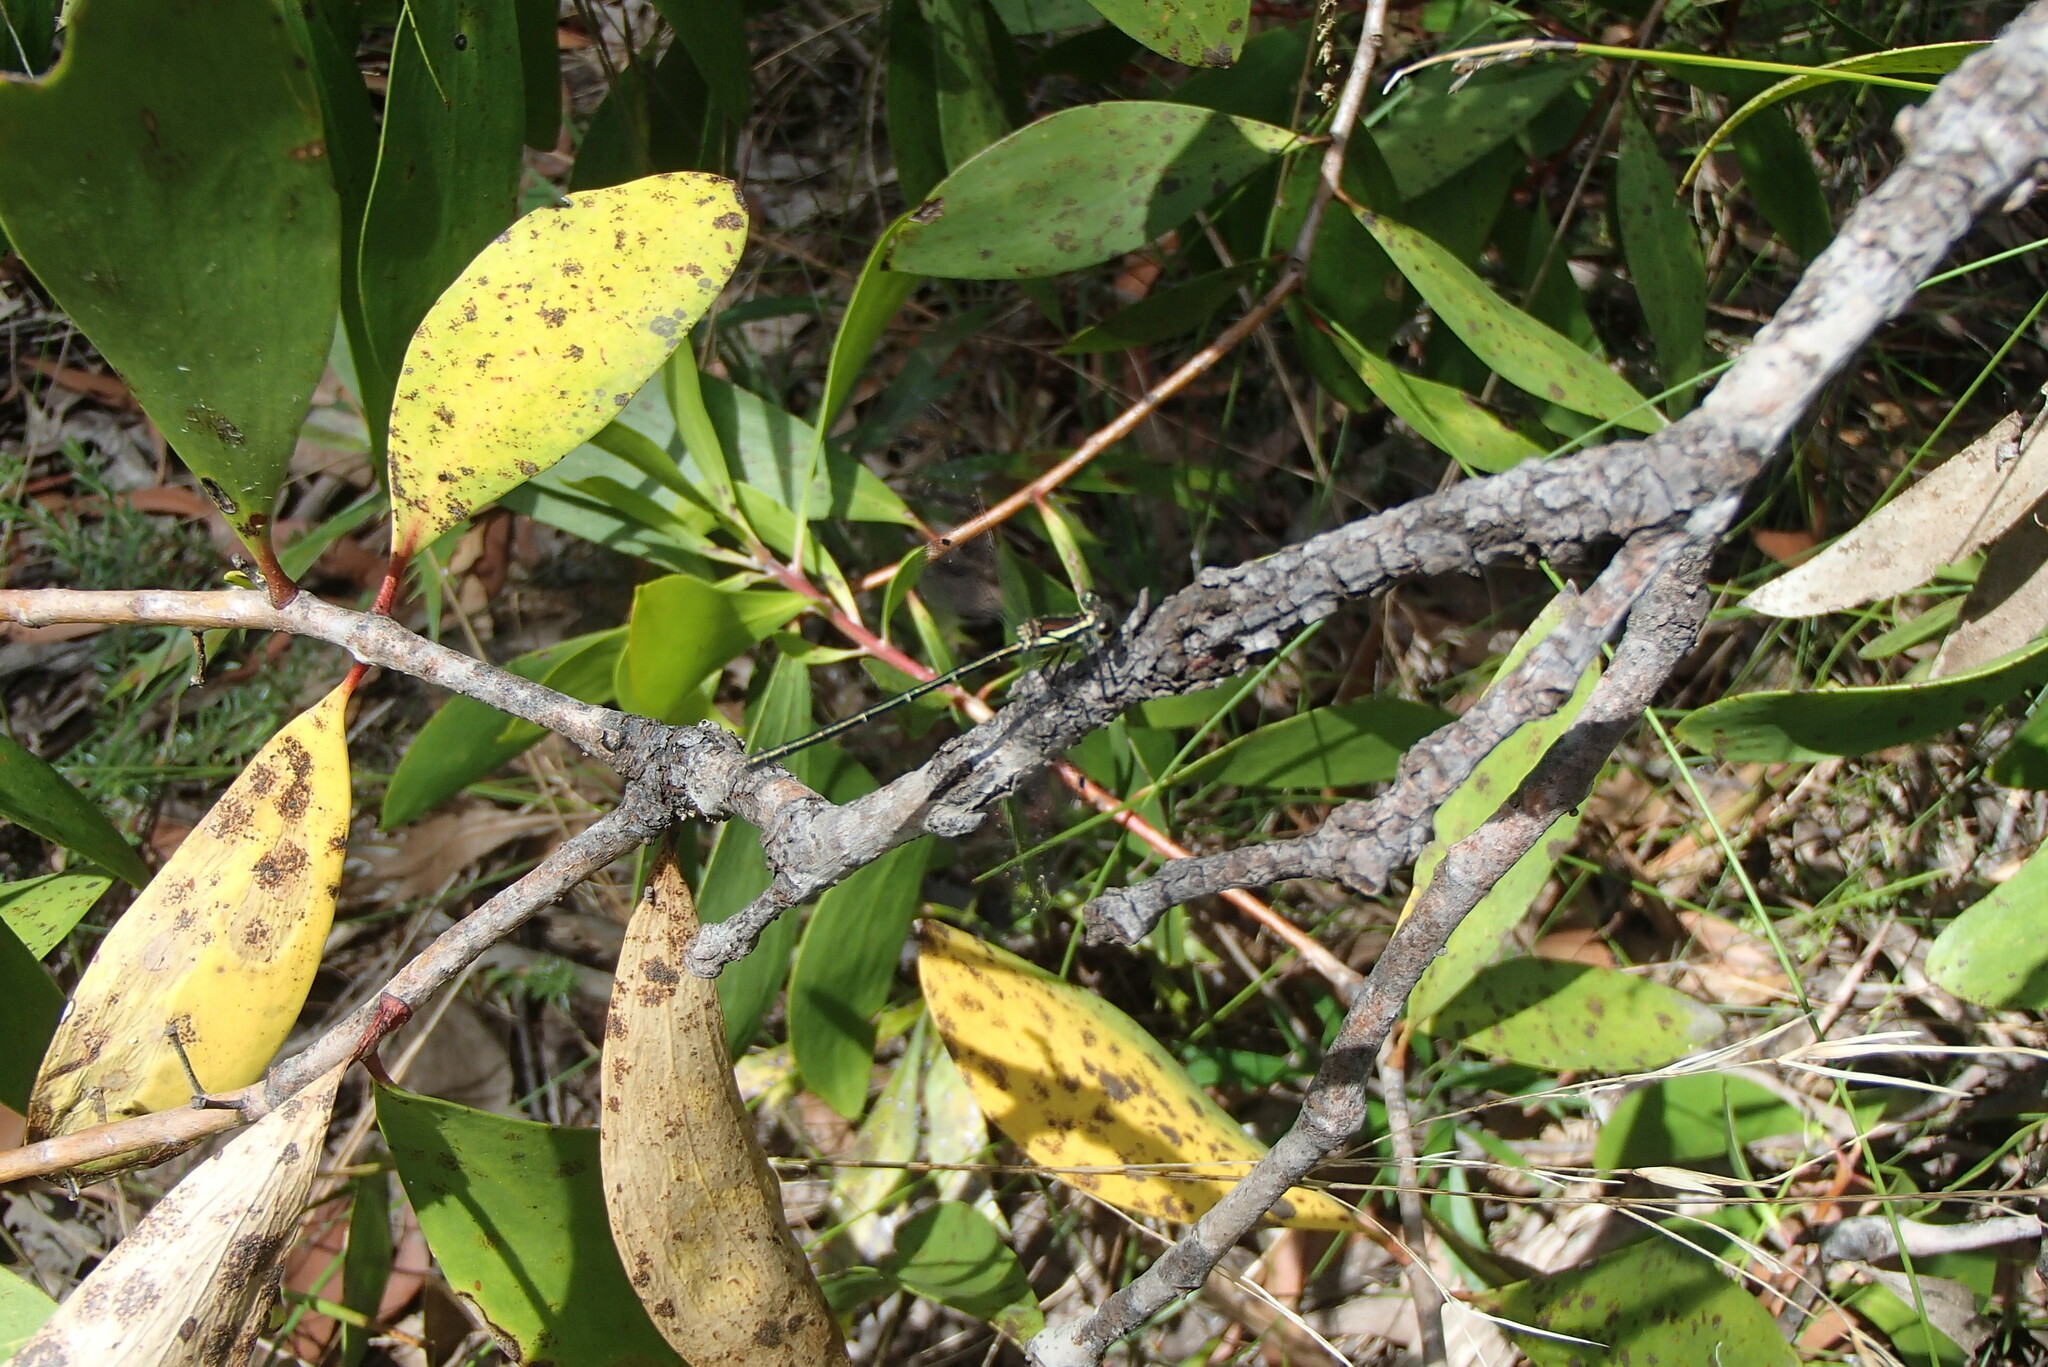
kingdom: Animalia
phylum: Arthropoda
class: Insecta
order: Odonata
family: Argiolestidae
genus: Griseargiolestes
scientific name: Griseargiolestes griseus
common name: Grey flatwing
